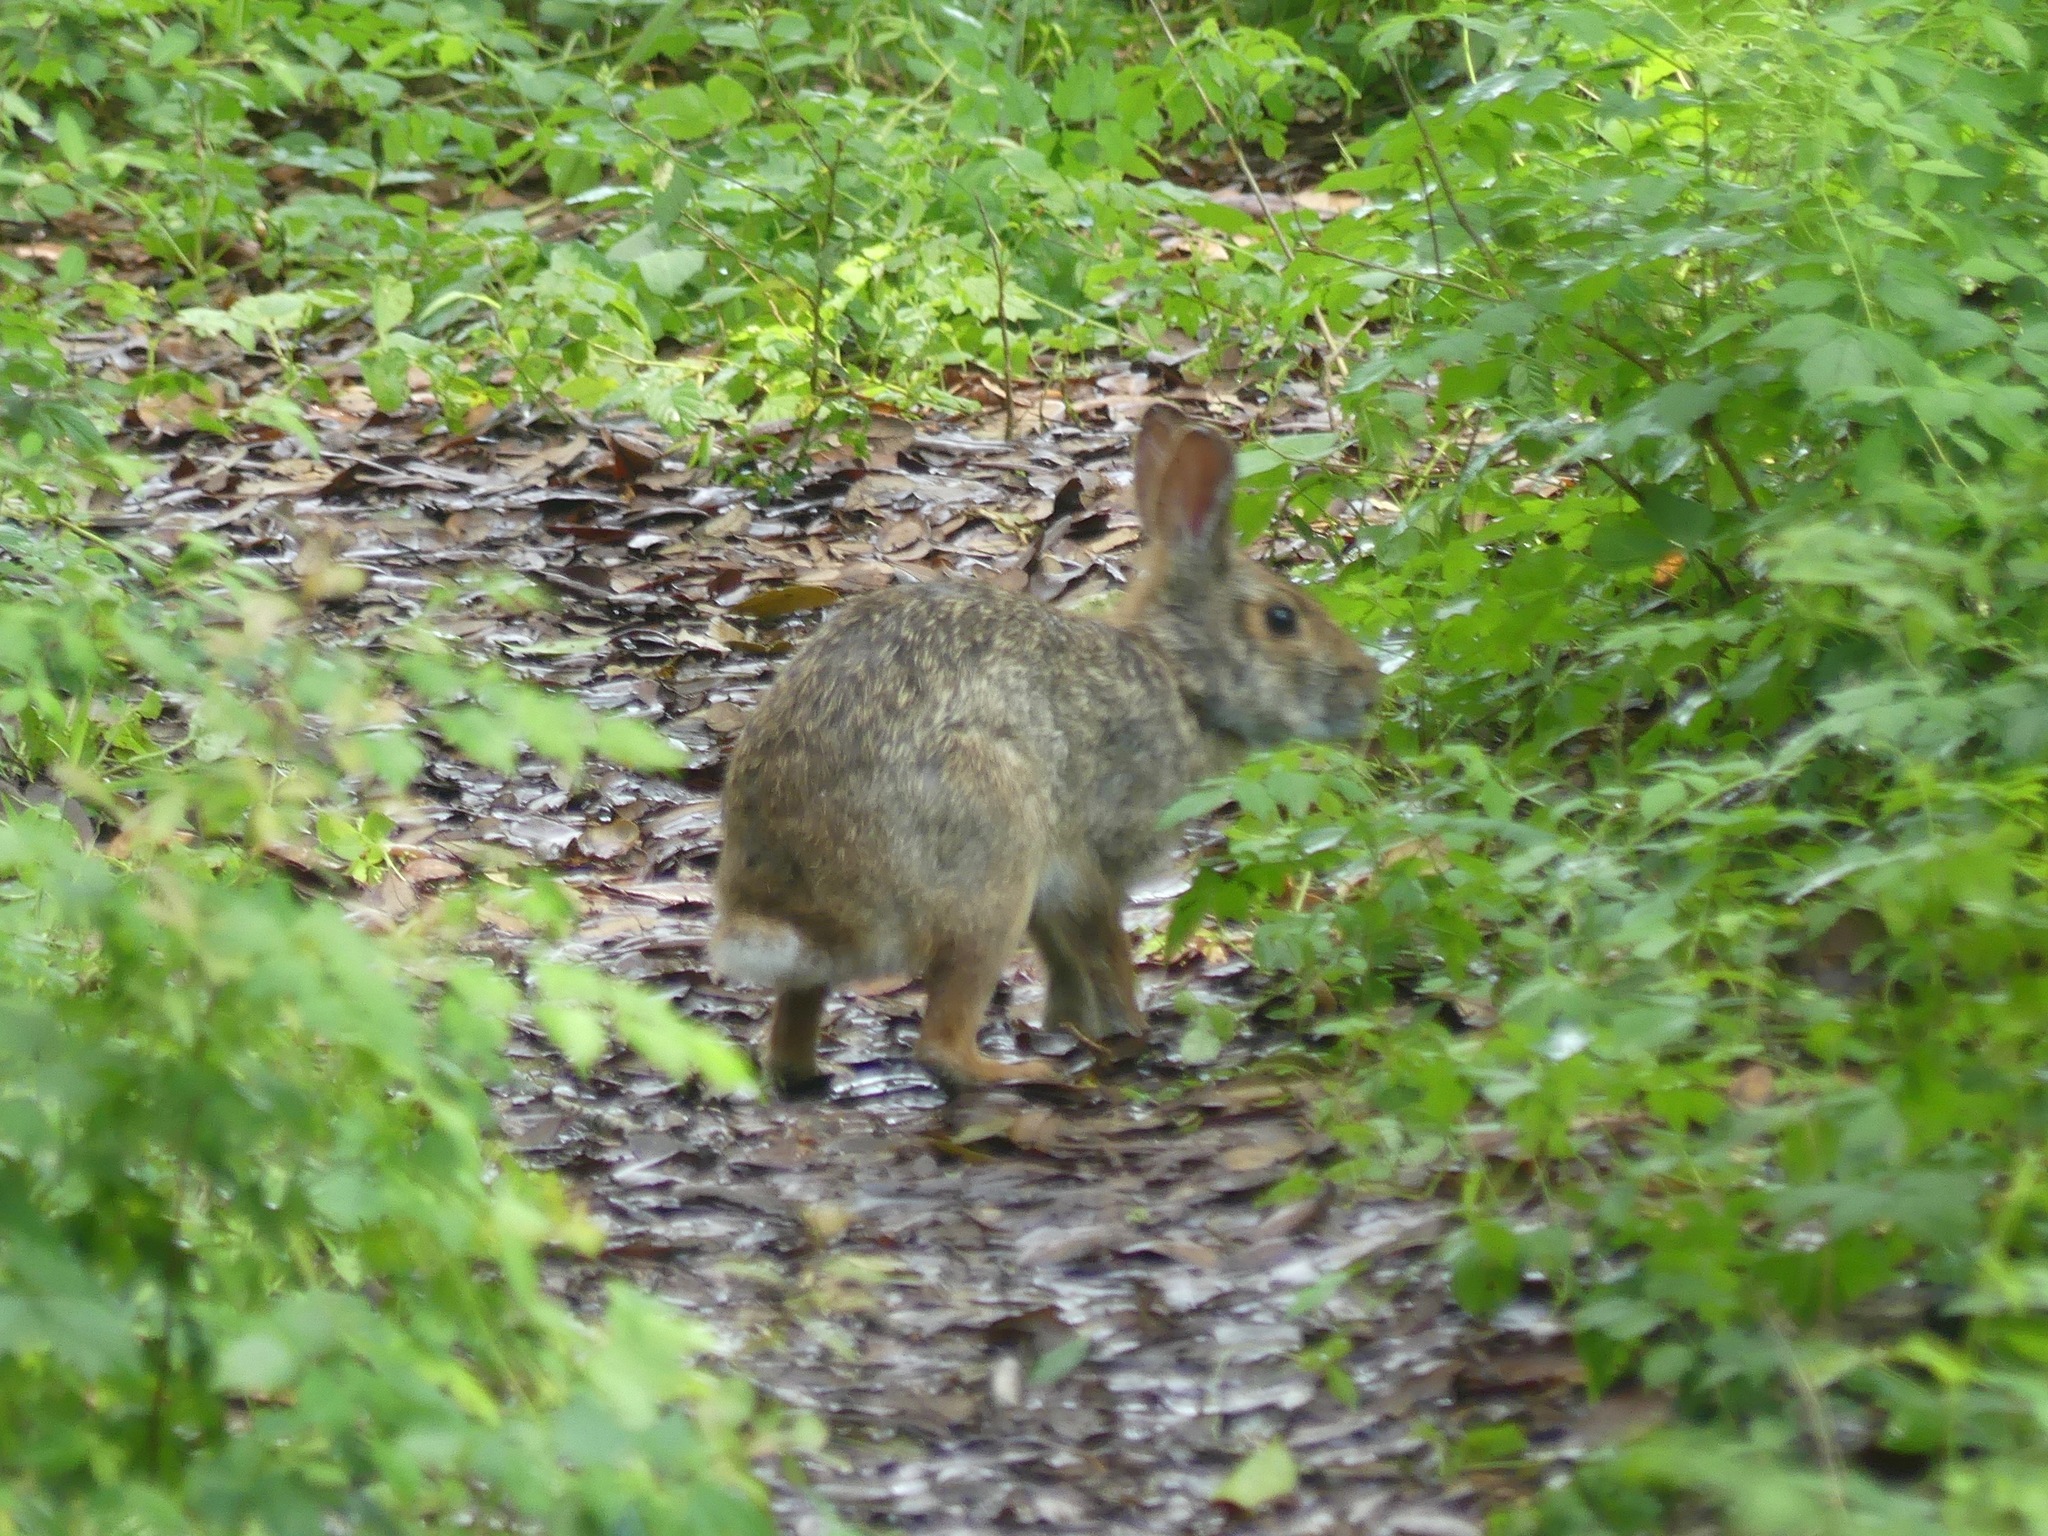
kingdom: Animalia
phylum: Chordata
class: Mammalia
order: Lagomorpha
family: Leporidae
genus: Sylvilagus
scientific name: Sylvilagus aquaticus
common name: Swamp rabbit
